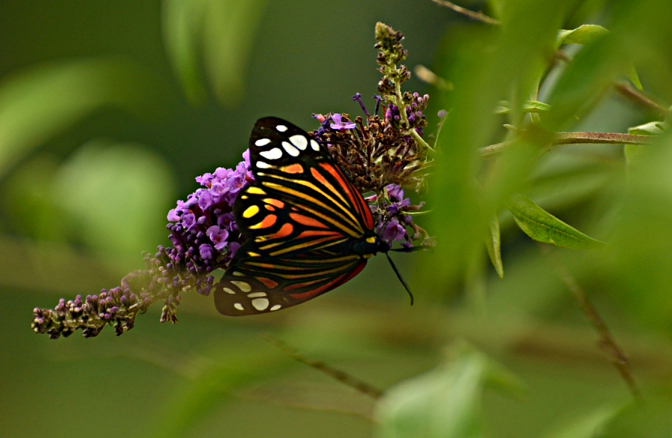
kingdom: Animalia
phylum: Arthropoda
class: Insecta
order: Lepidoptera
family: Zygaenidae
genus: Campylotes
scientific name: Campylotes histrionicus
